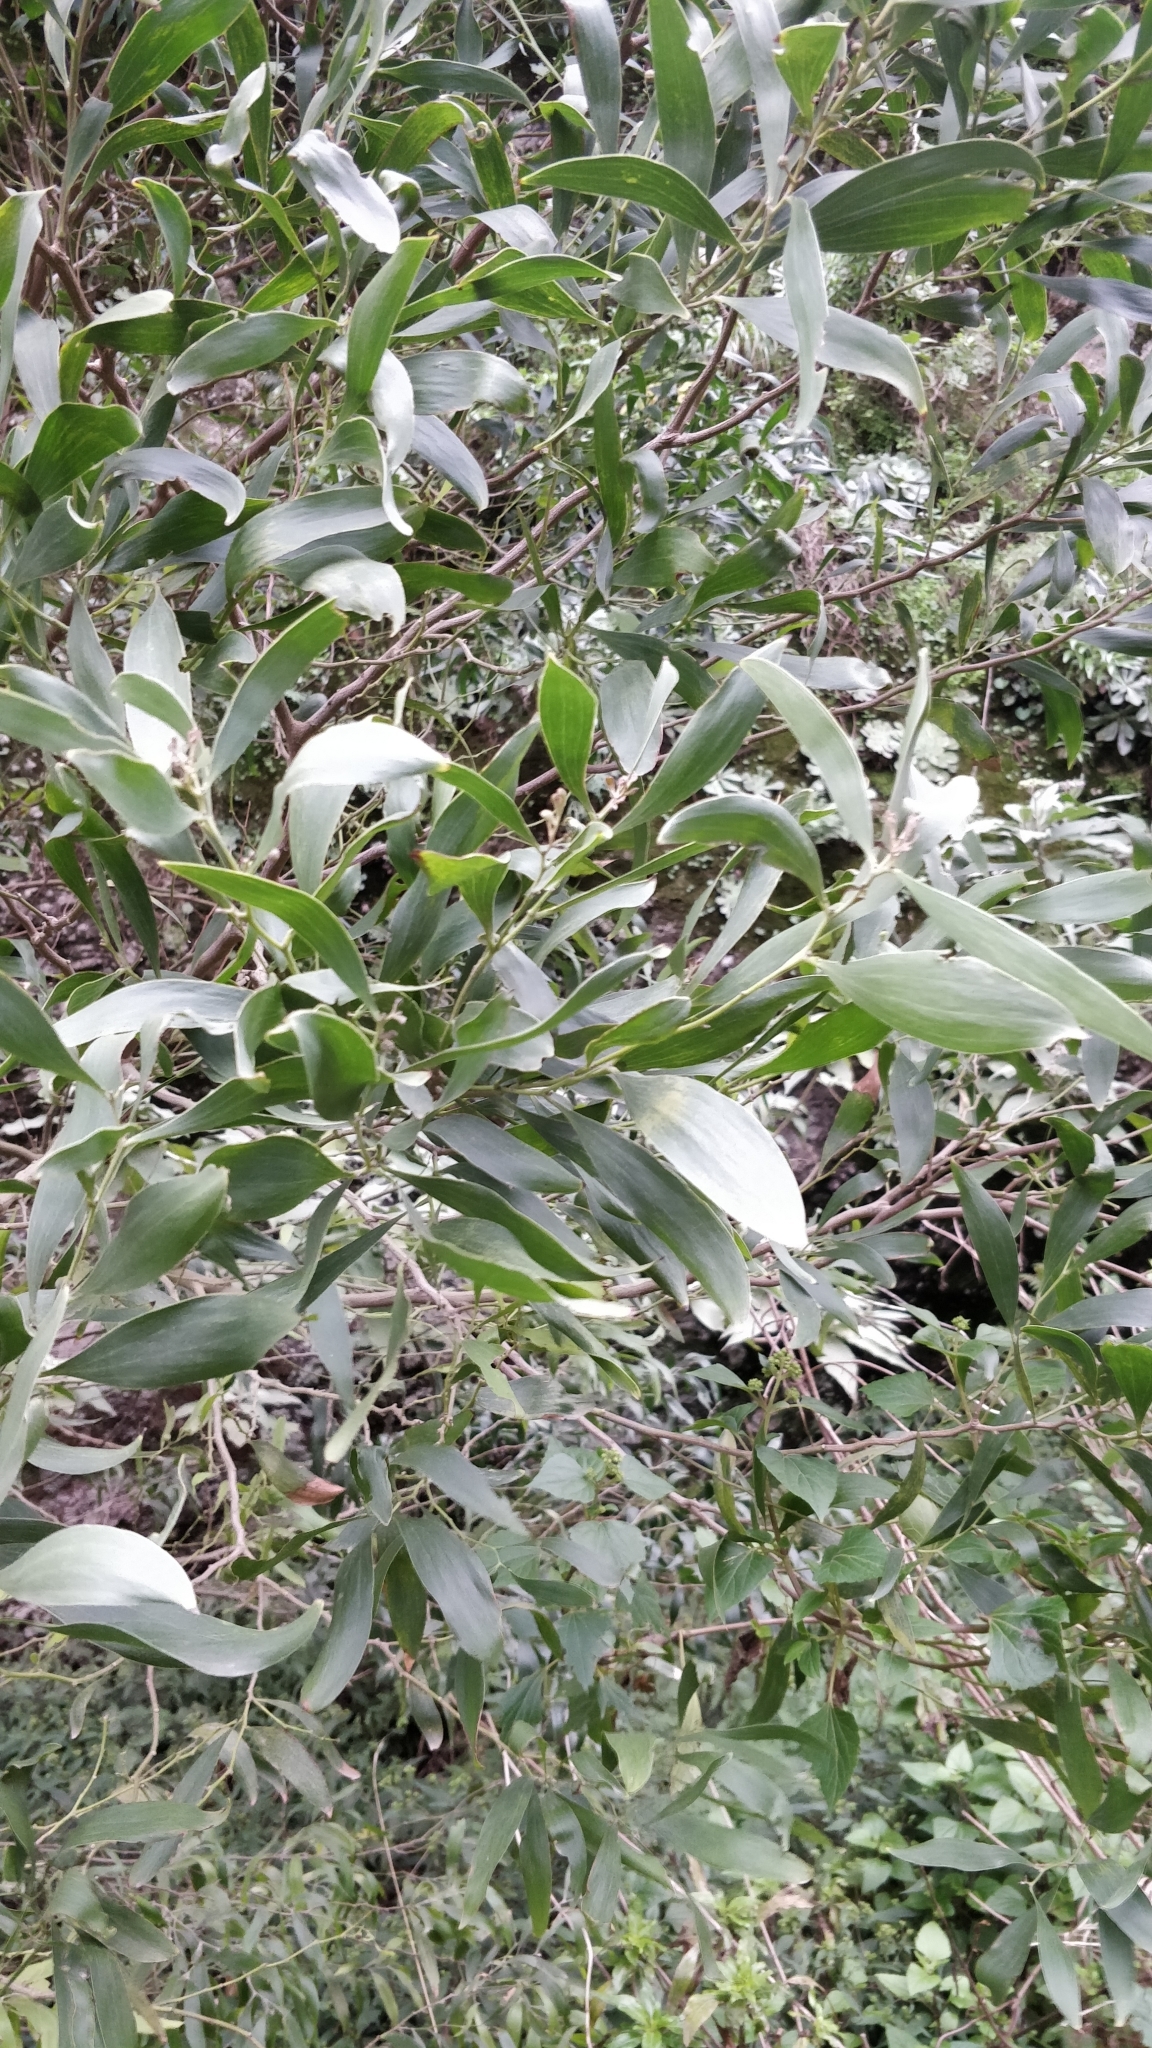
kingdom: Plantae
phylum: Tracheophyta
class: Magnoliopsida
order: Fabales
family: Fabaceae
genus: Acacia
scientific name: Acacia melanoxylon
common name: Blackwood
